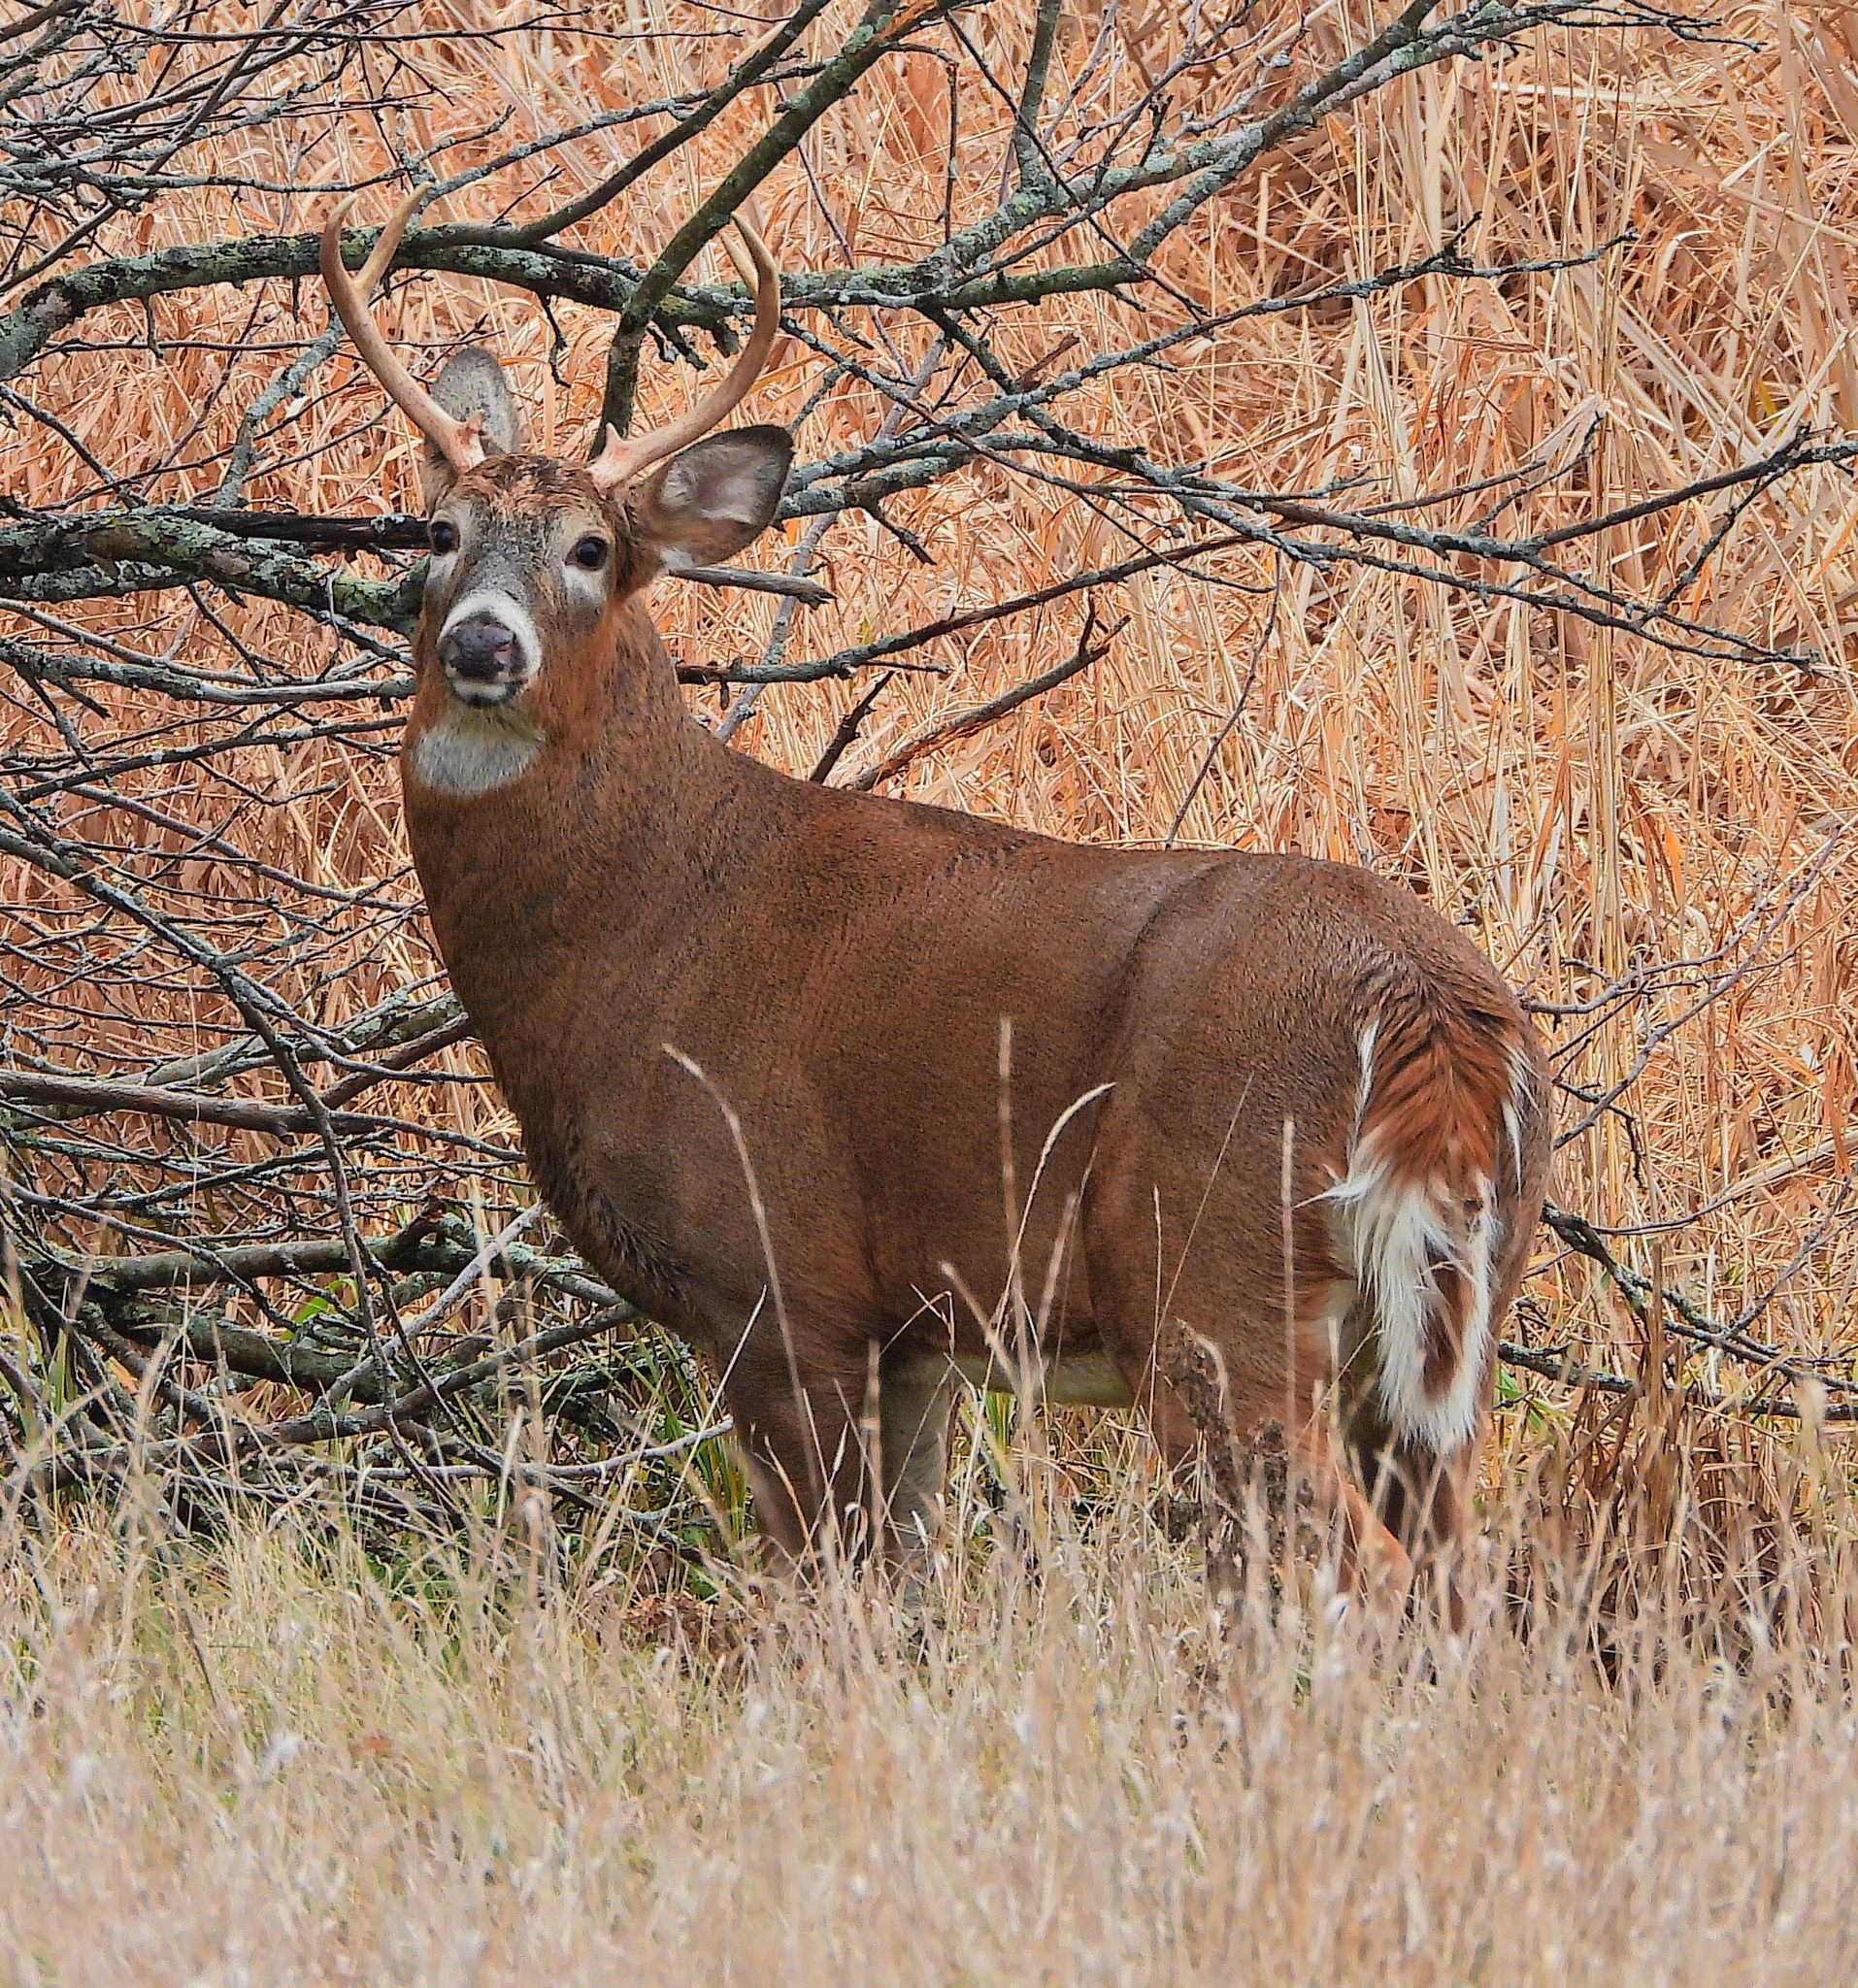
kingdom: Animalia
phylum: Chordata
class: Mammalia
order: Artiodactyla
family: Cervidae
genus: Odocoileus
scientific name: Odocoileus virginianus
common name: White-tailed deer
